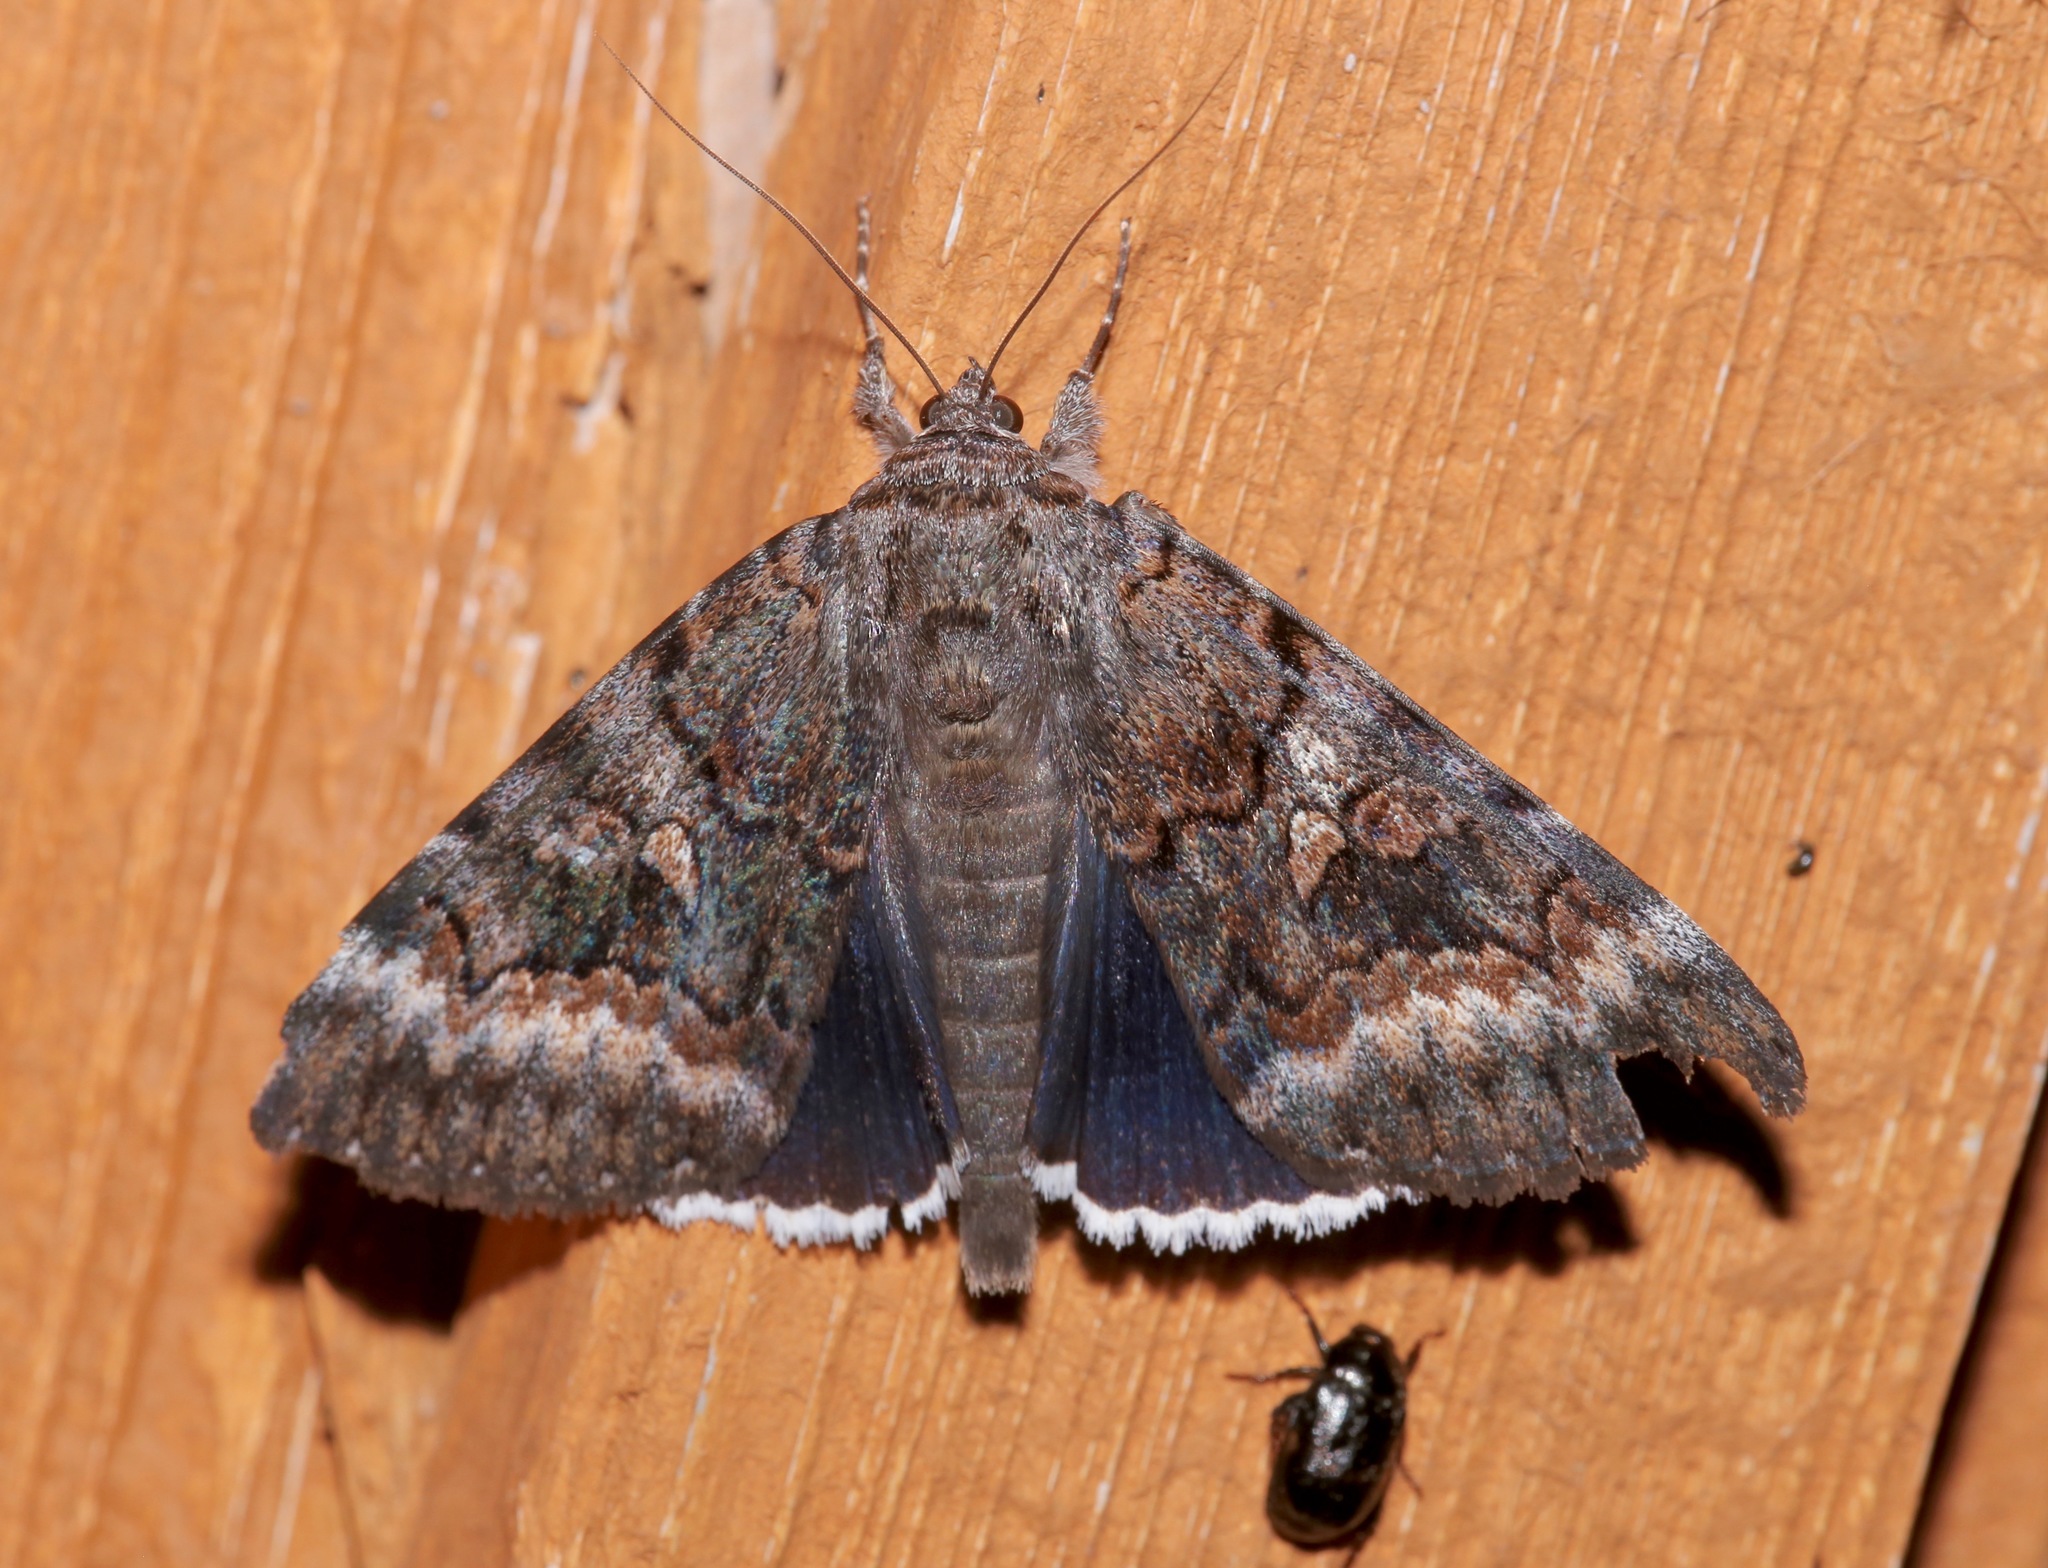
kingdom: Animalia
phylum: Arthropoda
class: Insecta
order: Lepidoptera
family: Erebidae
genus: Catocala
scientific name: Catocala epione
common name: Epione underwing
